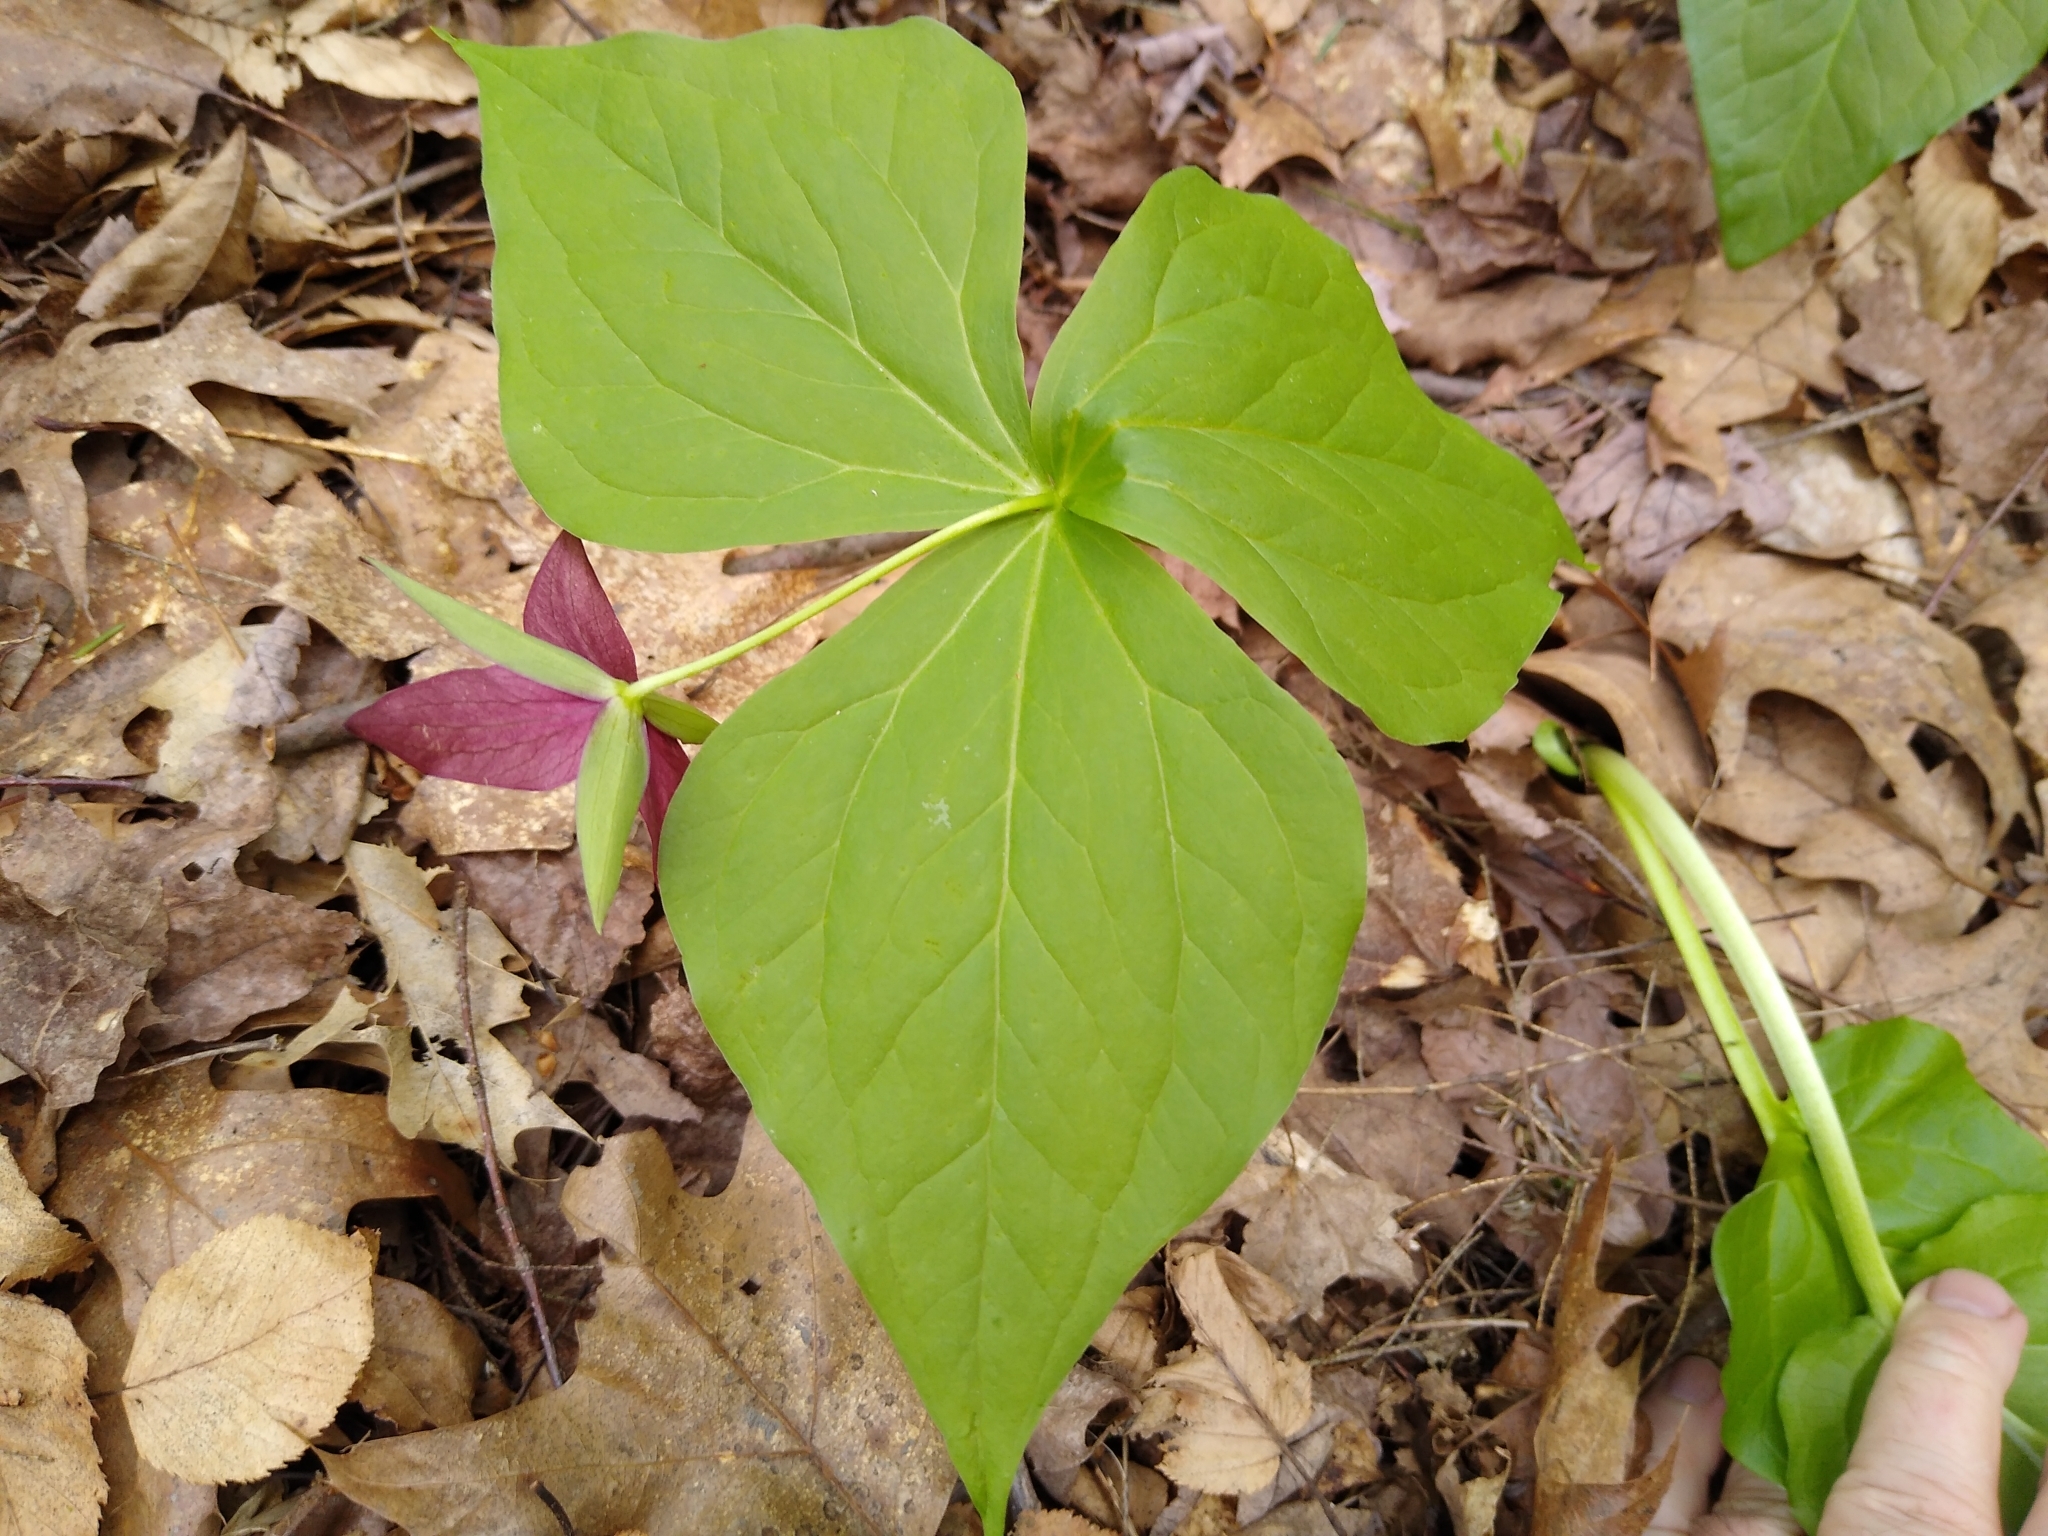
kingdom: Plantae
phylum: Tracheophyta
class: Liliopsida
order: Liliales
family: Melanthiaceae
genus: Trillium
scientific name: Trillium erectum
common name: Purple trillium
